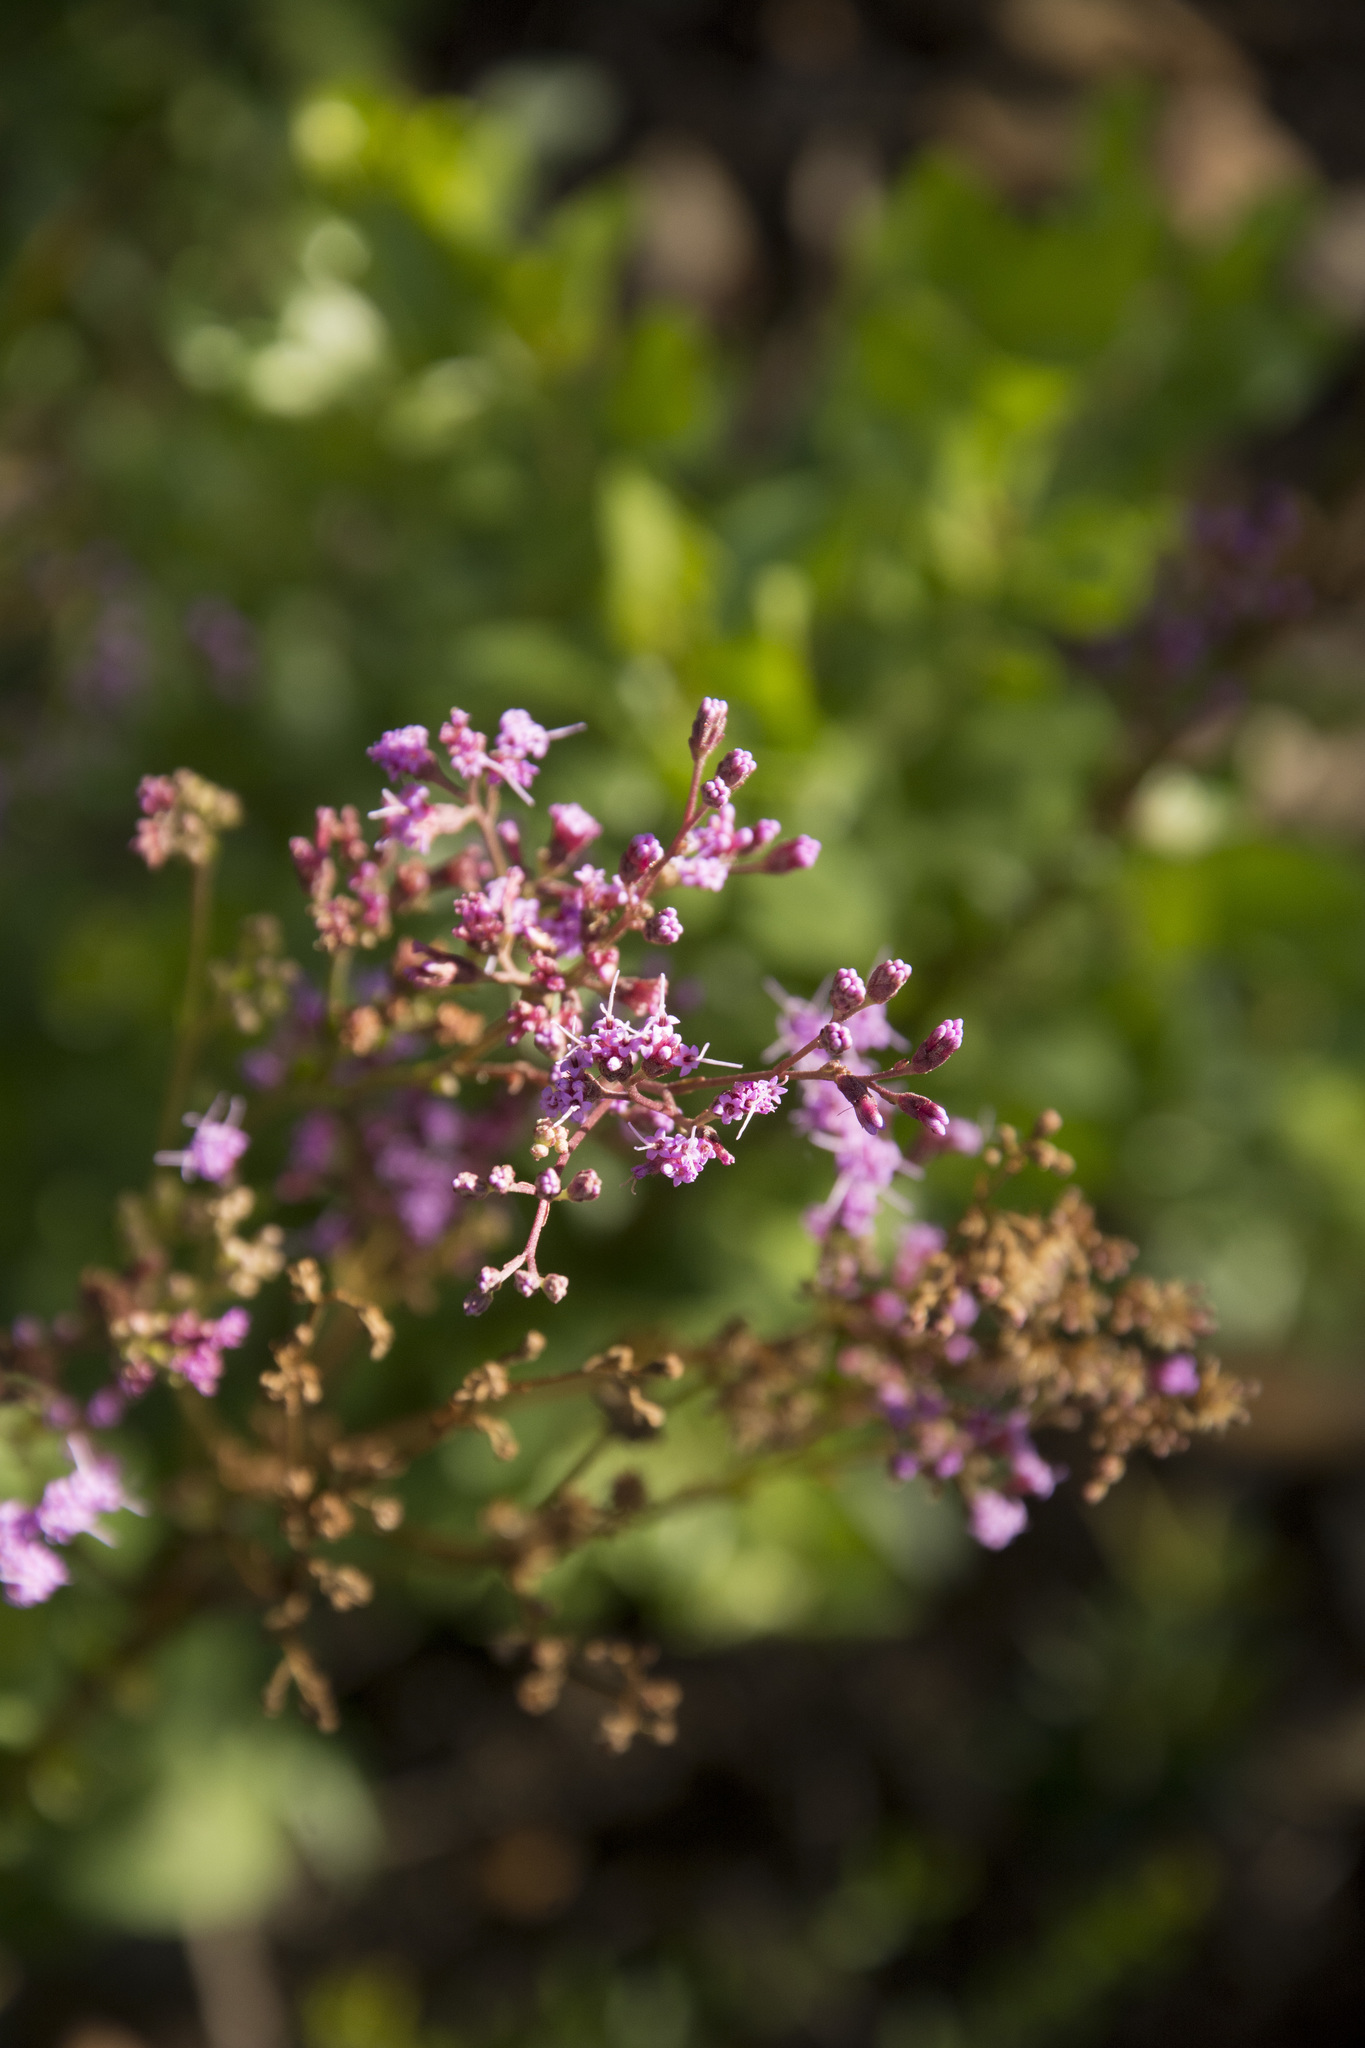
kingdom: Plantae
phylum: Tracheophyta
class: Magnoliopsida
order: Asterales
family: Asteraceae
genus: Carphephorus
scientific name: Carphephorus odoratissimus
